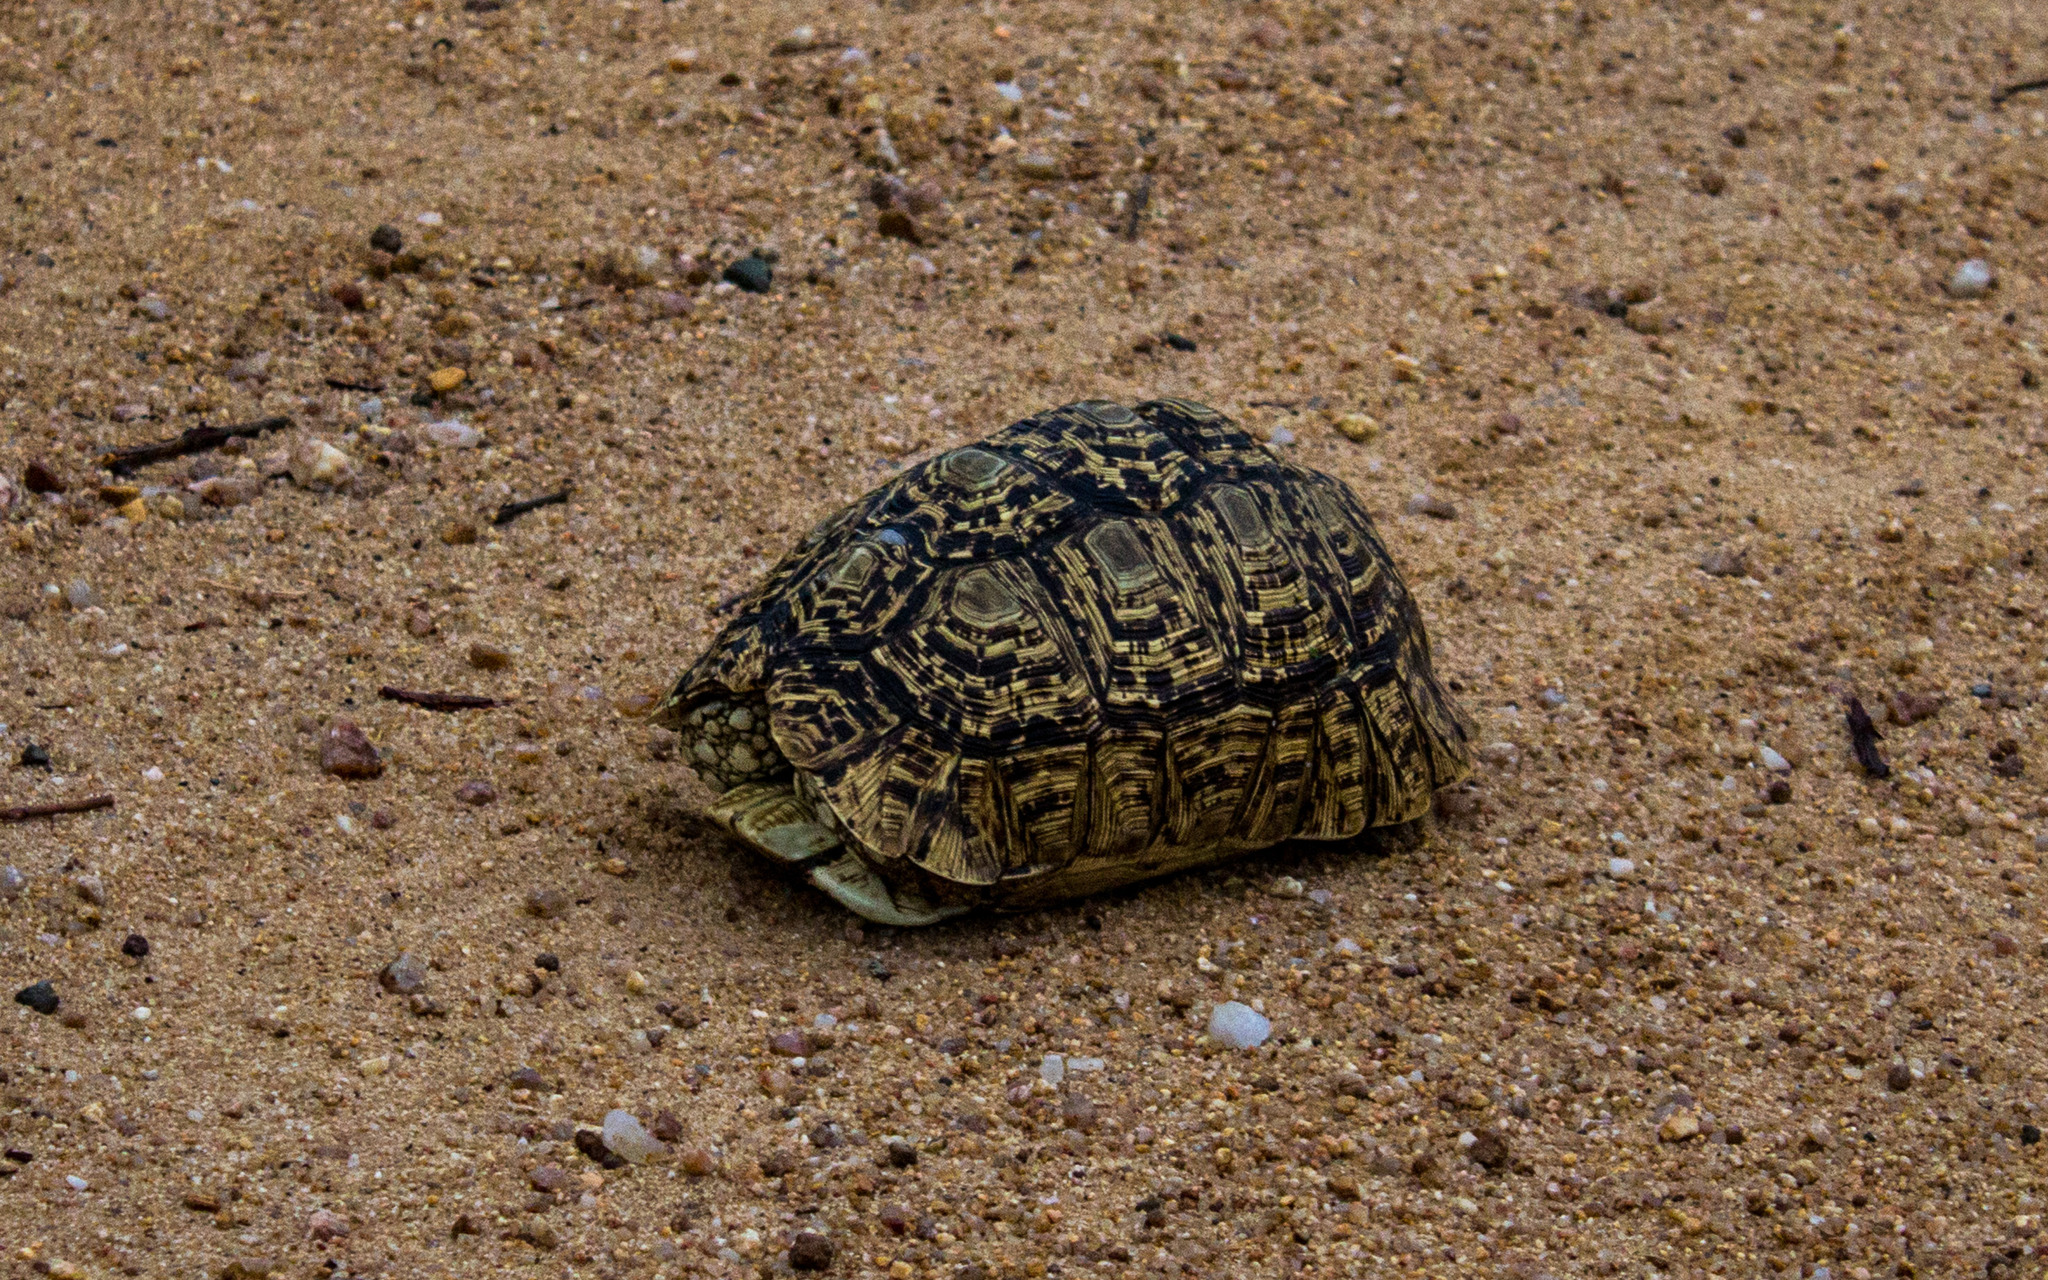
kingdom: Animalia
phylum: Chordata
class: Testudines
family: Testudinidae
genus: Stigmochelys
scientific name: Stigmochelys pardalis
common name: Leopard tortoise
